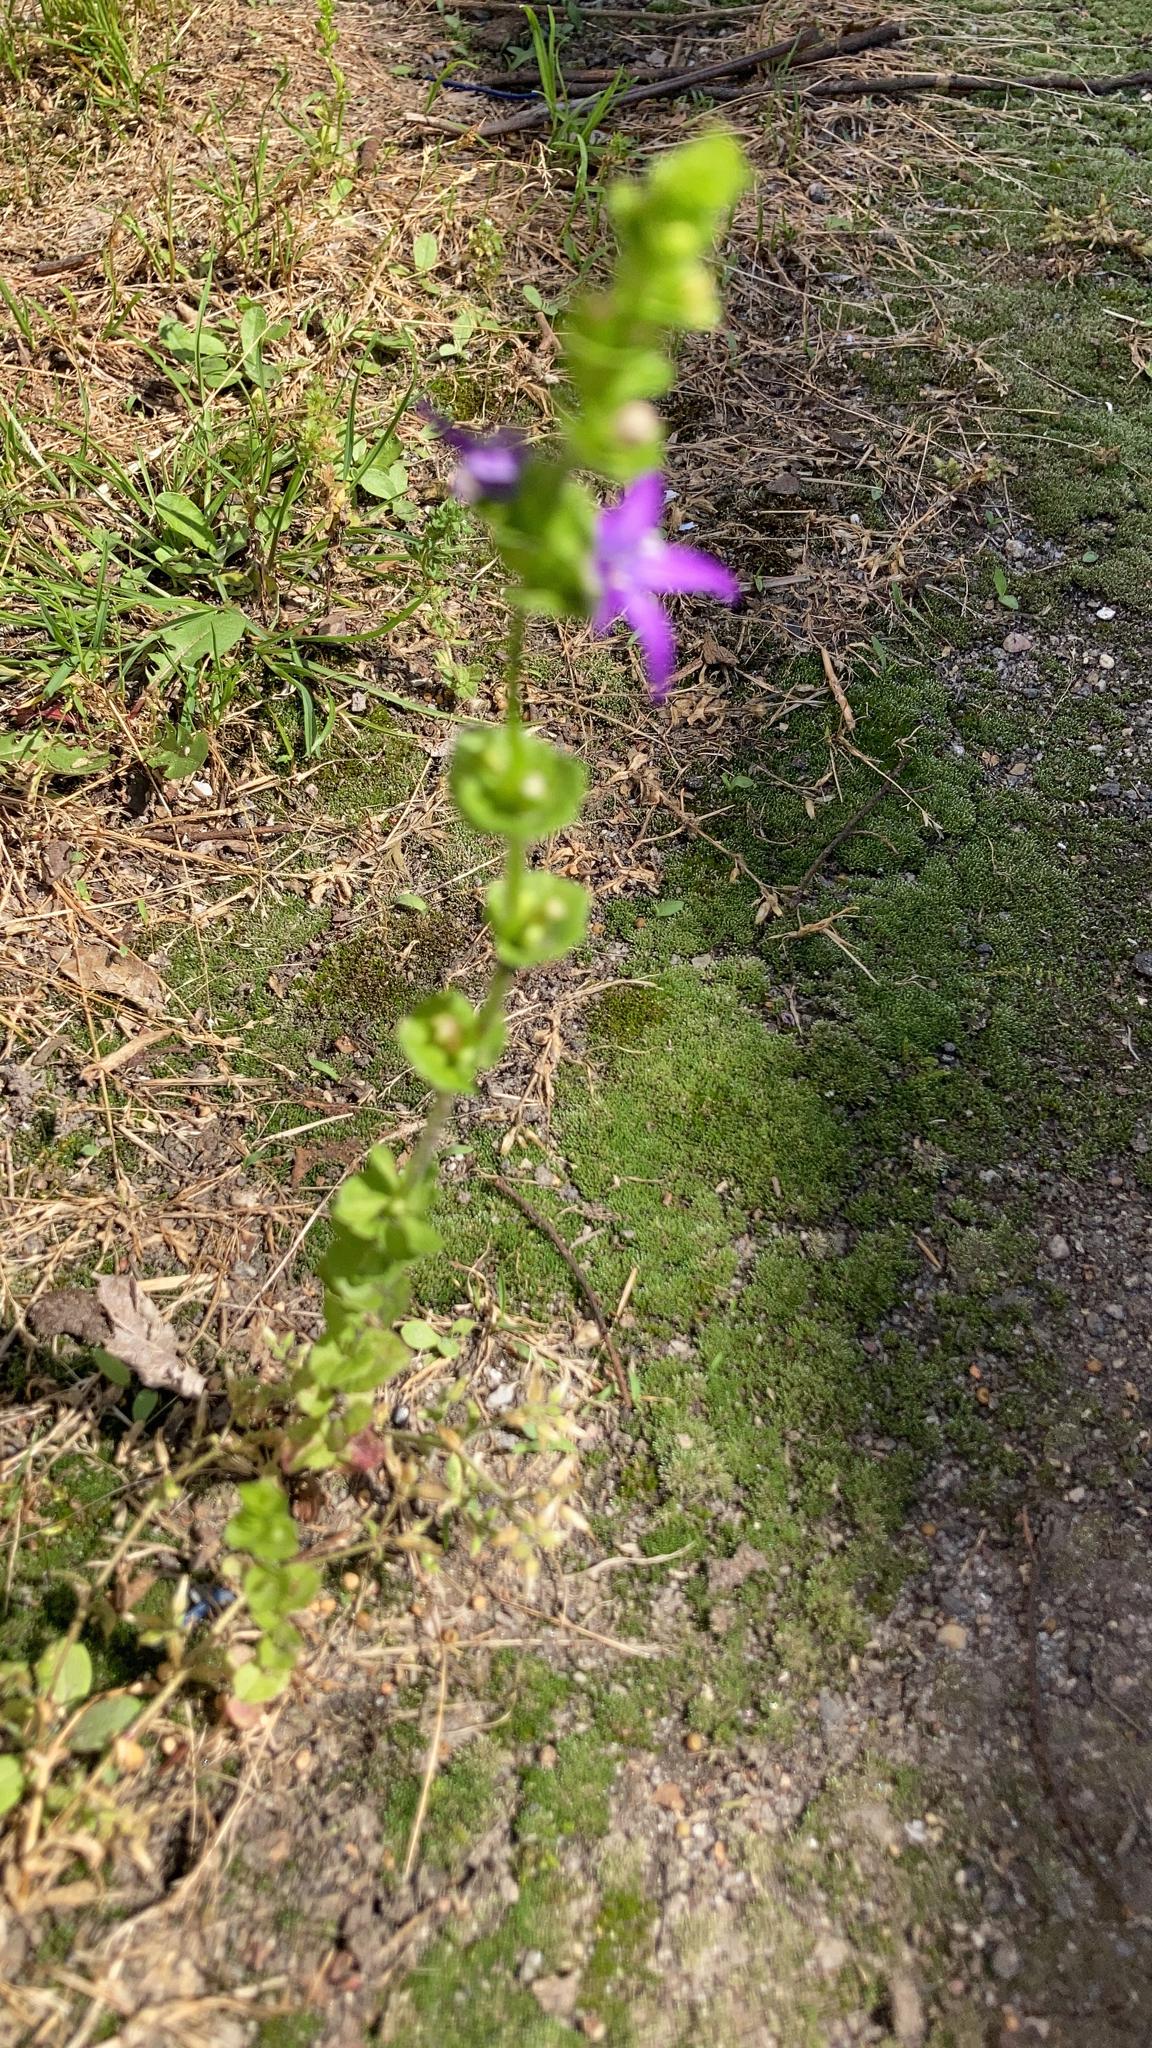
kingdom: Plantae
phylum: Tracheophyta
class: Magnoliopsida
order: Asterales
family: Campanulaceae
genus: Triodanis
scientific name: Triodanis perfoliata
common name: Clasping venus' looking-glass
